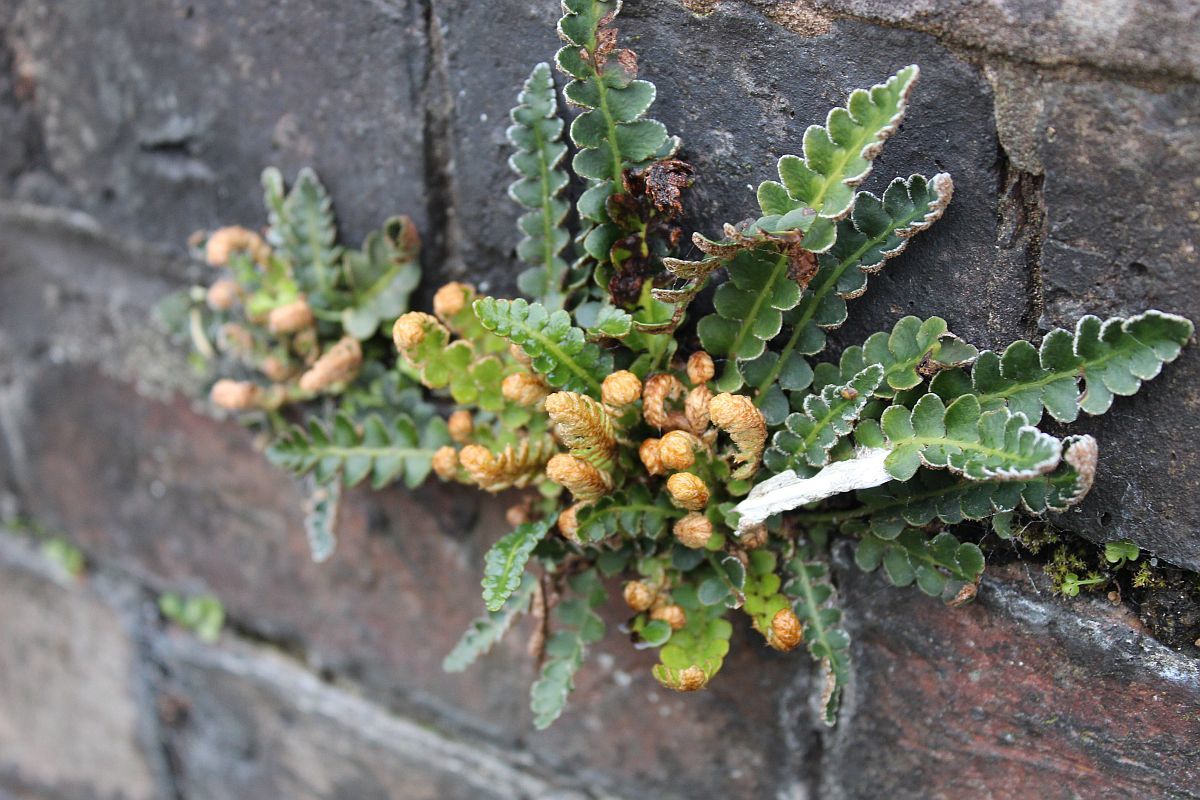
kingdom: Plantae
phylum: Tracheophyta
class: Polypodiopsida
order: Polypodiales
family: Aspleniaceae
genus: Asplenium
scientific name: Asplenium ceterach
